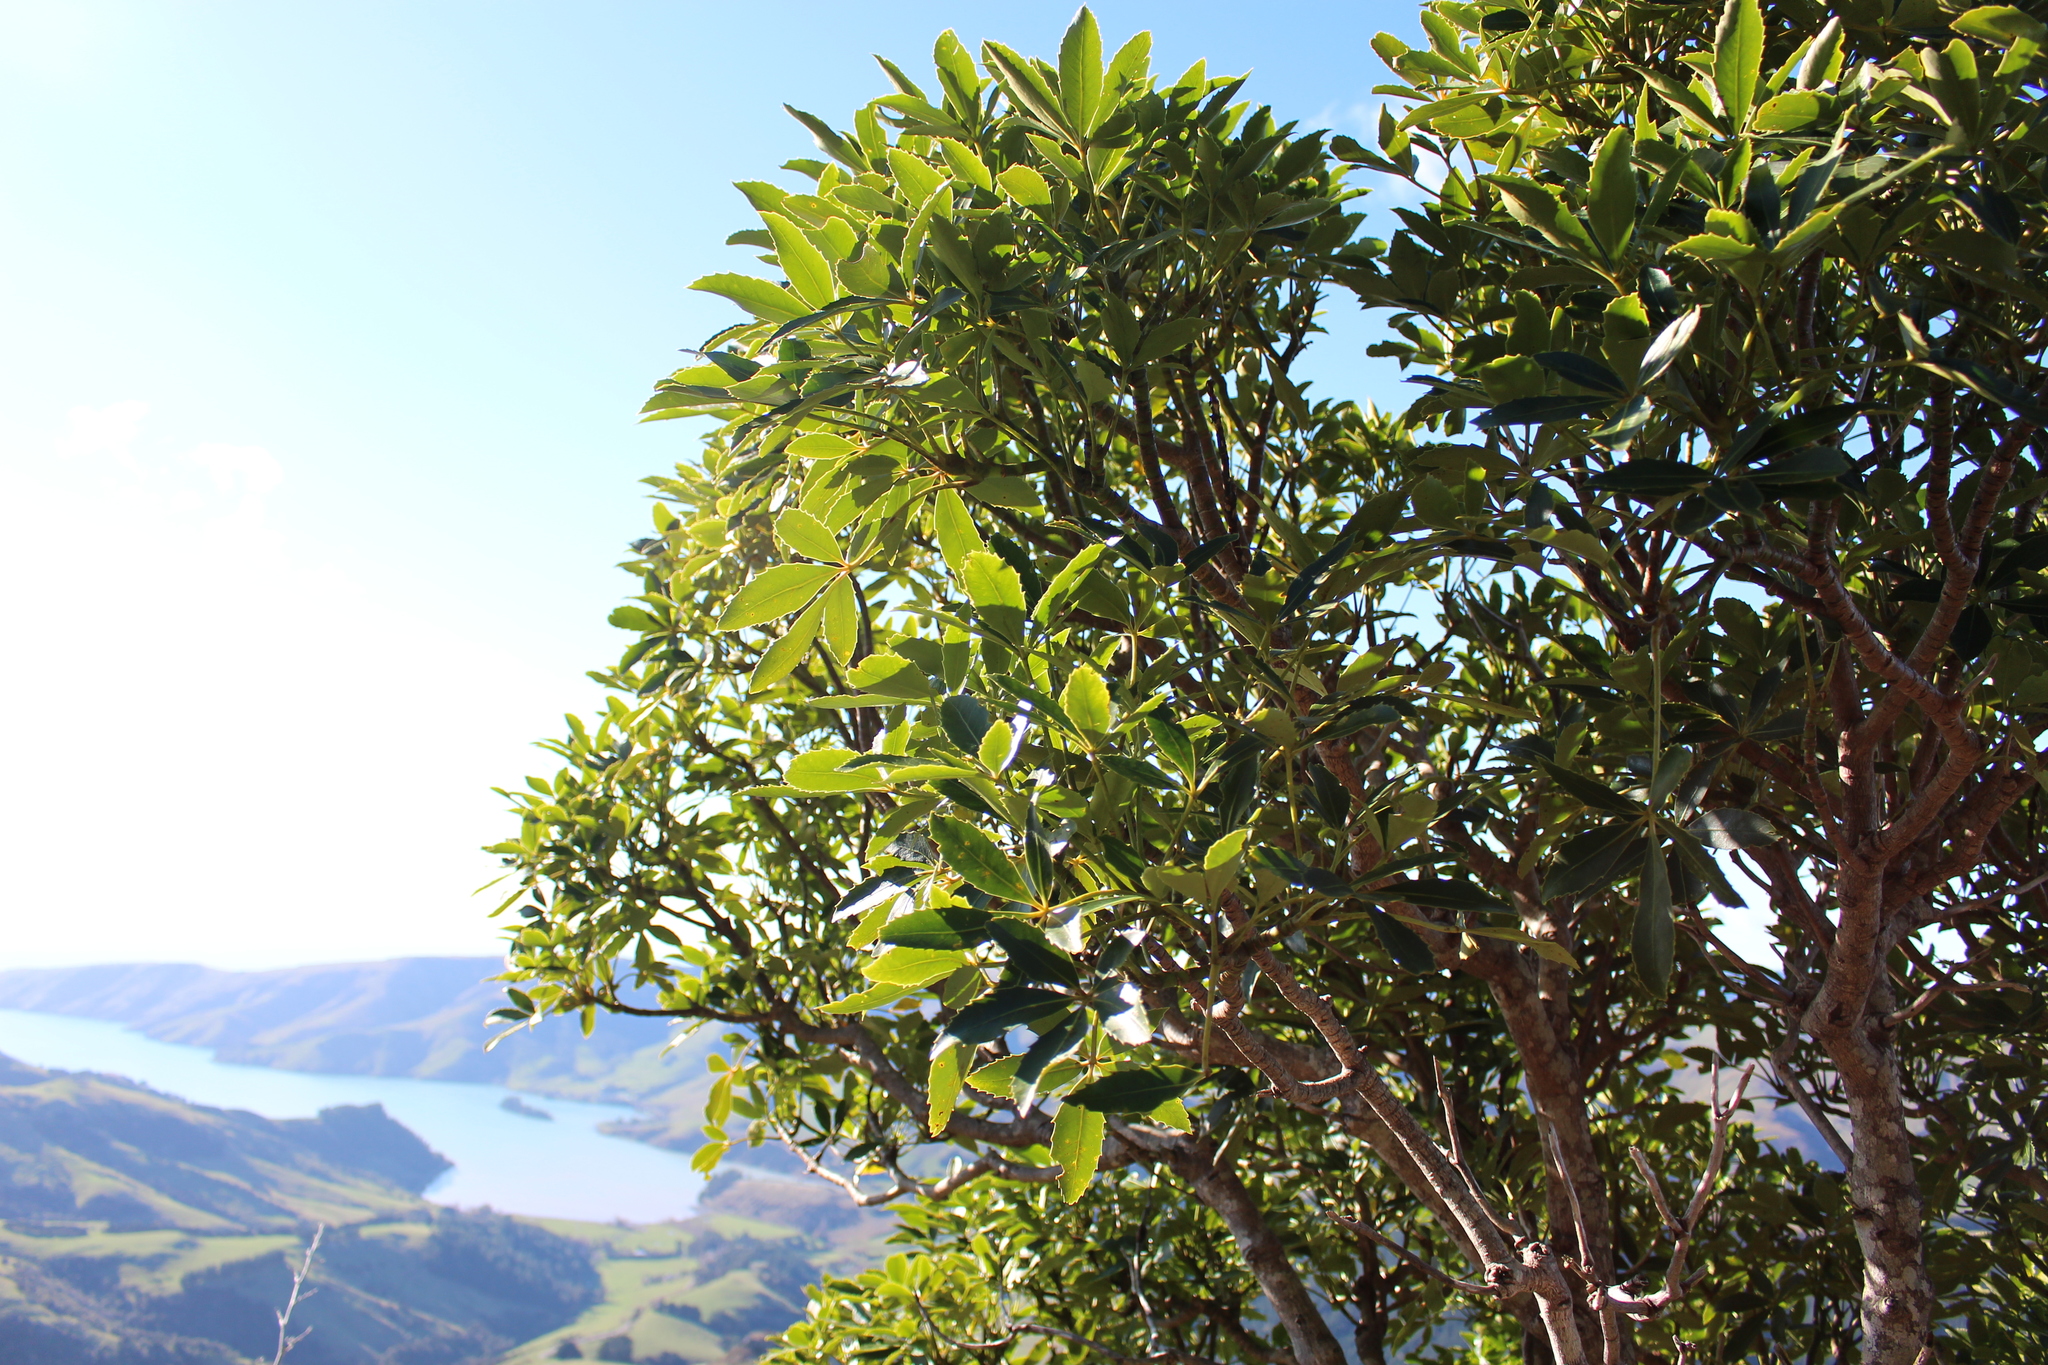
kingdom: Plantae
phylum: Tracheophyta
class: Magnoliopsida
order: Apiales
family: Araliaceae
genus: Neopanax
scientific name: Neopanax colensoi
